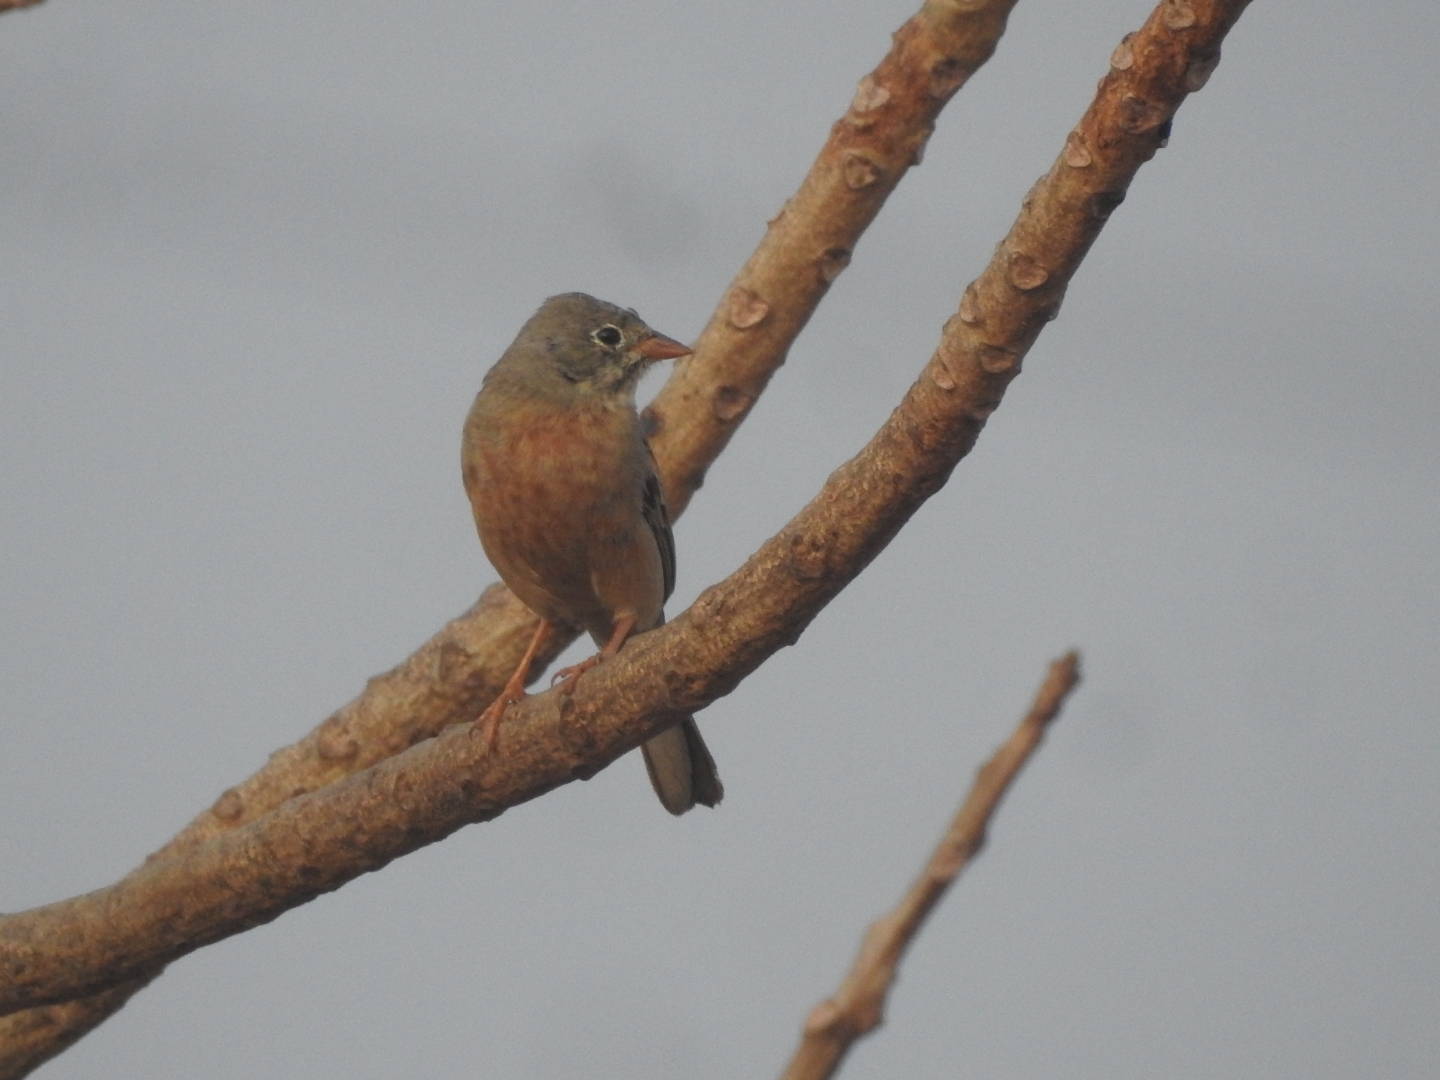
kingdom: Animalia
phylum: Chordata
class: Aves
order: Passeriformes
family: Emberizidae
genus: Emberiza
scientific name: Emberiza buchanani
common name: Grey-necked bunting
